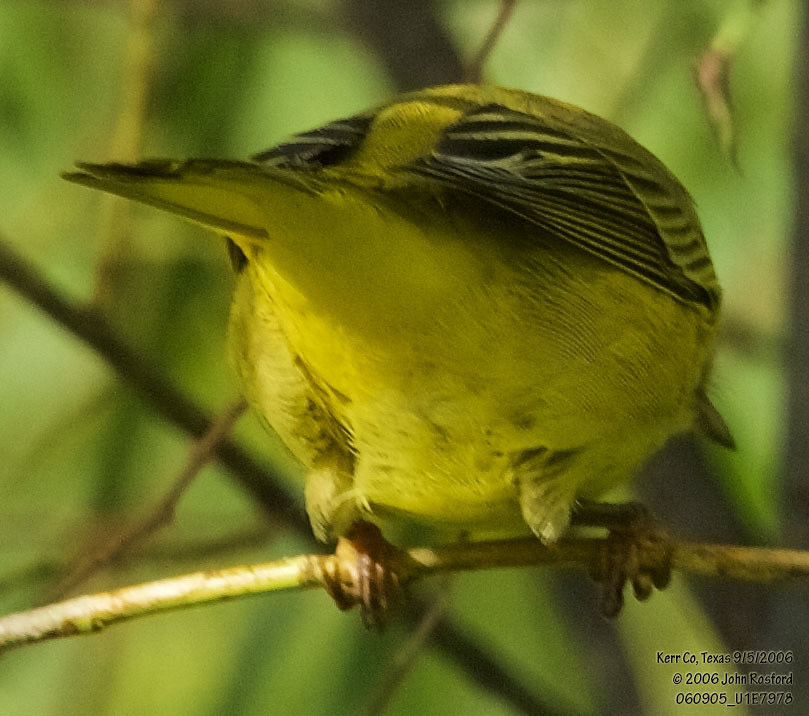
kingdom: Animalia
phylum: Chordata
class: Aves
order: Passeriformes
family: Parulidae
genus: Setophaga
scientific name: Setophaga petechia
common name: Yellow warbler
